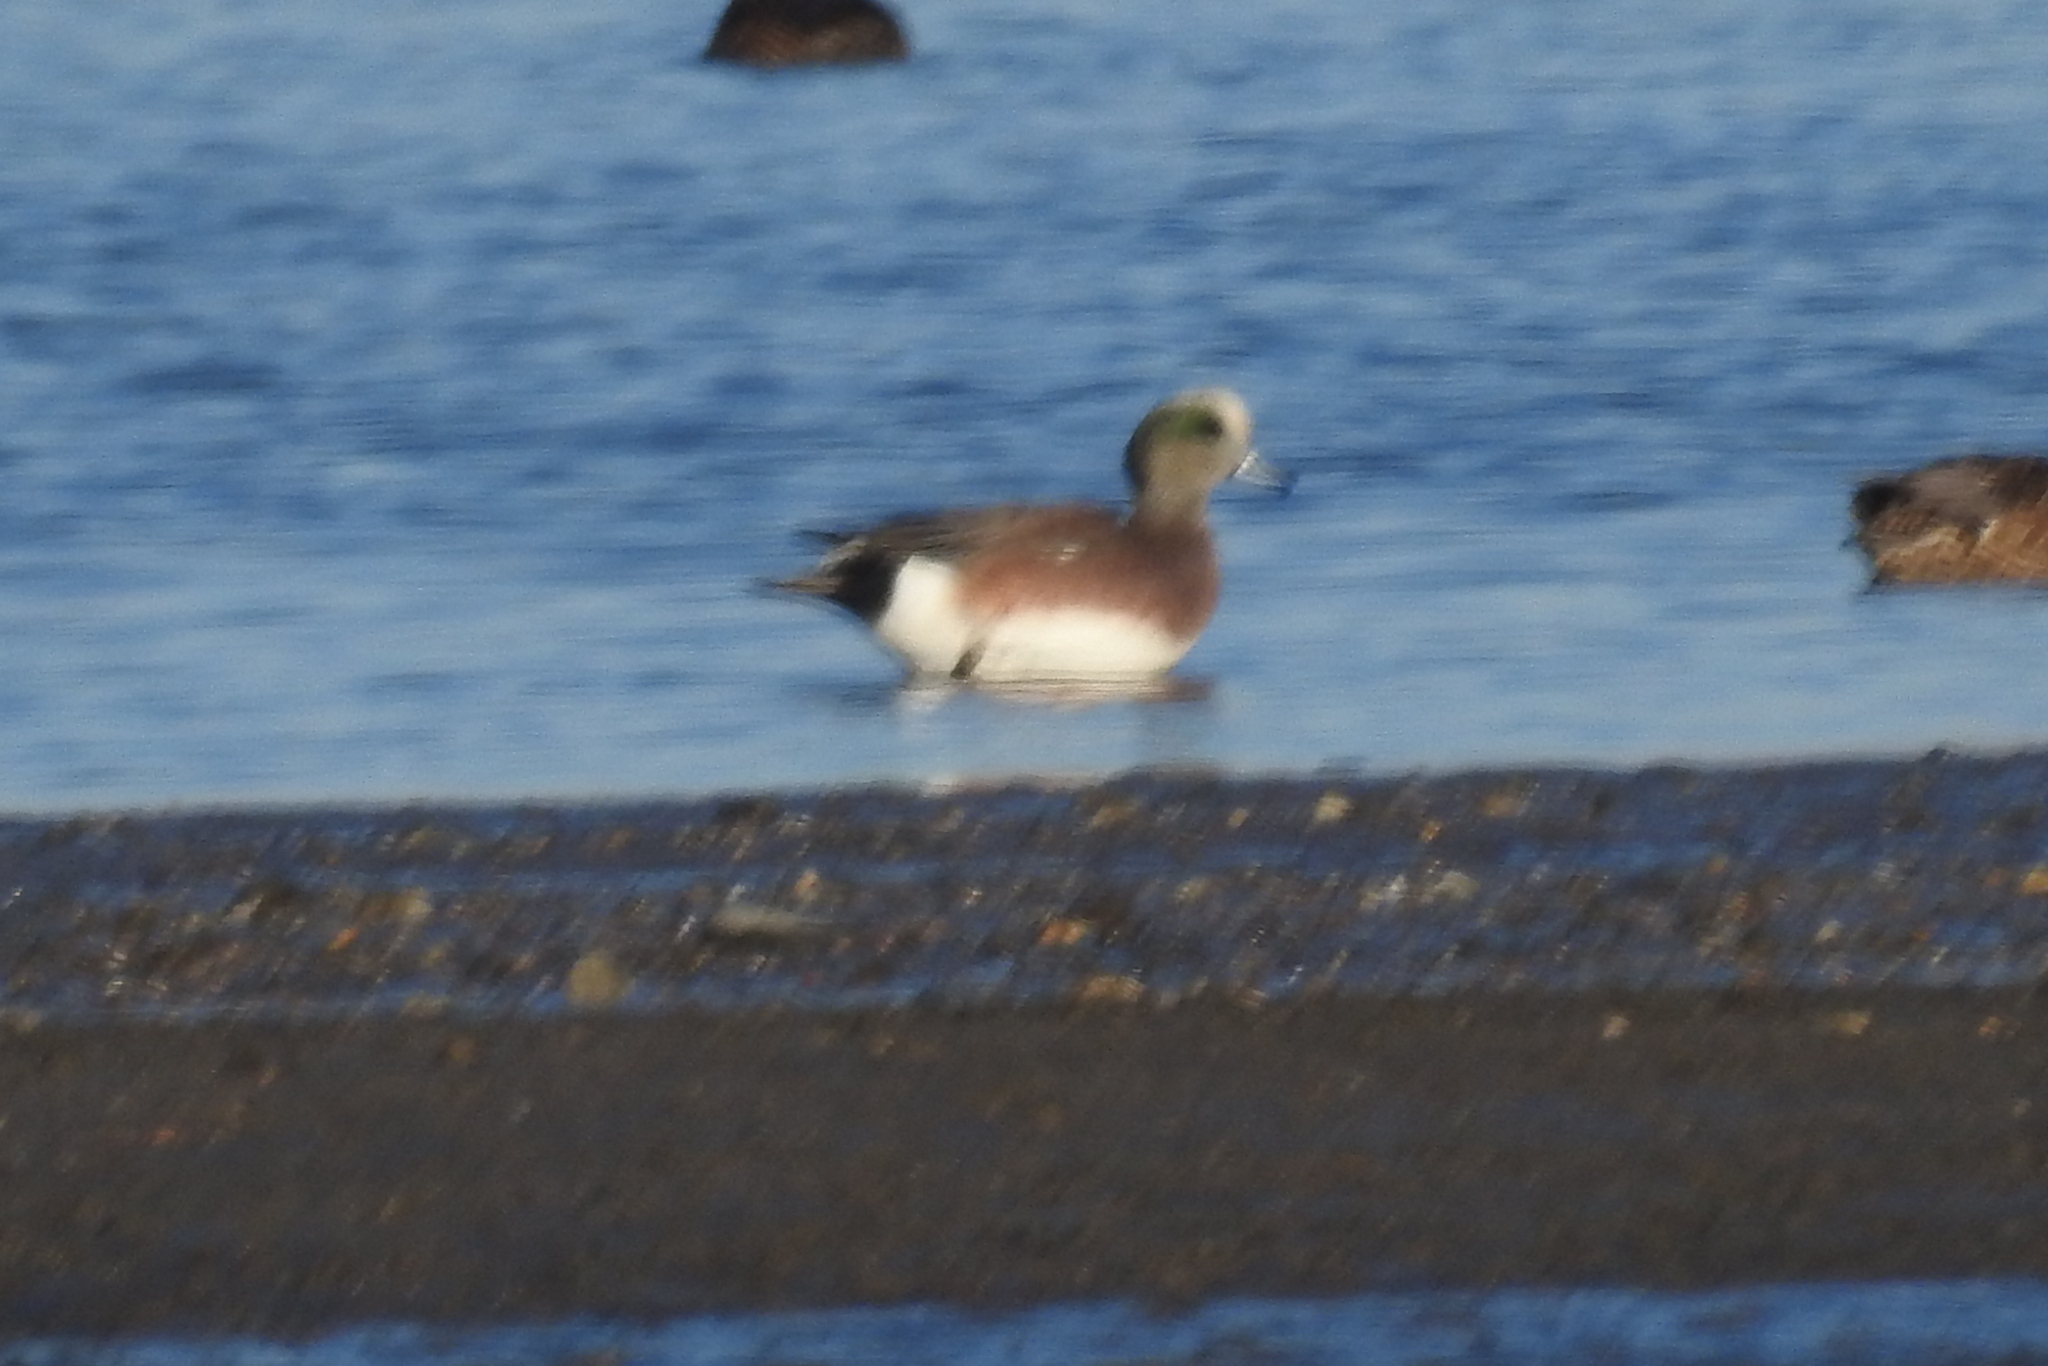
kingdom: Animalia
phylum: Chordata
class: Aves
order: Anseriformes
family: Anatidae
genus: Mareca
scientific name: Mareca americana
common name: American wigeon
